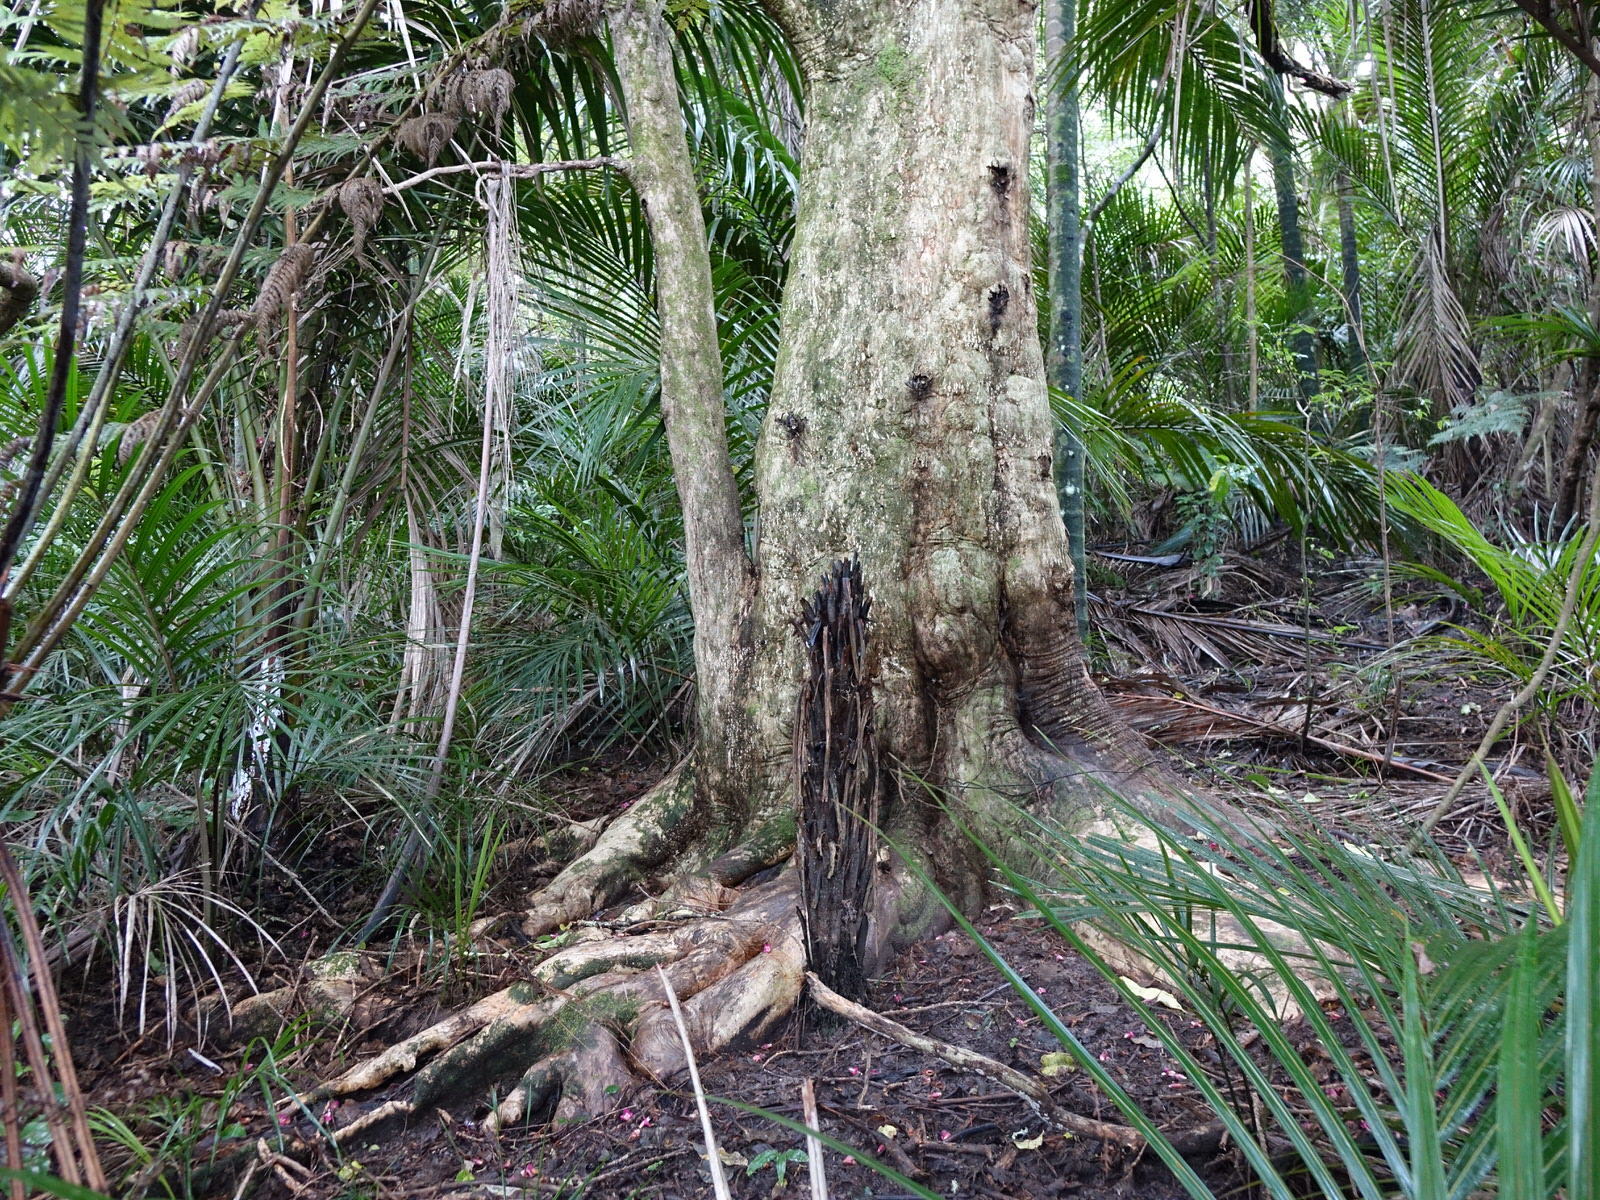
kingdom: Plantae
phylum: Tracheophyta
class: Magnoliopsida
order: Lamiales
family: Lamiaceae
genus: Vitex
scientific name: Vitex lucens
